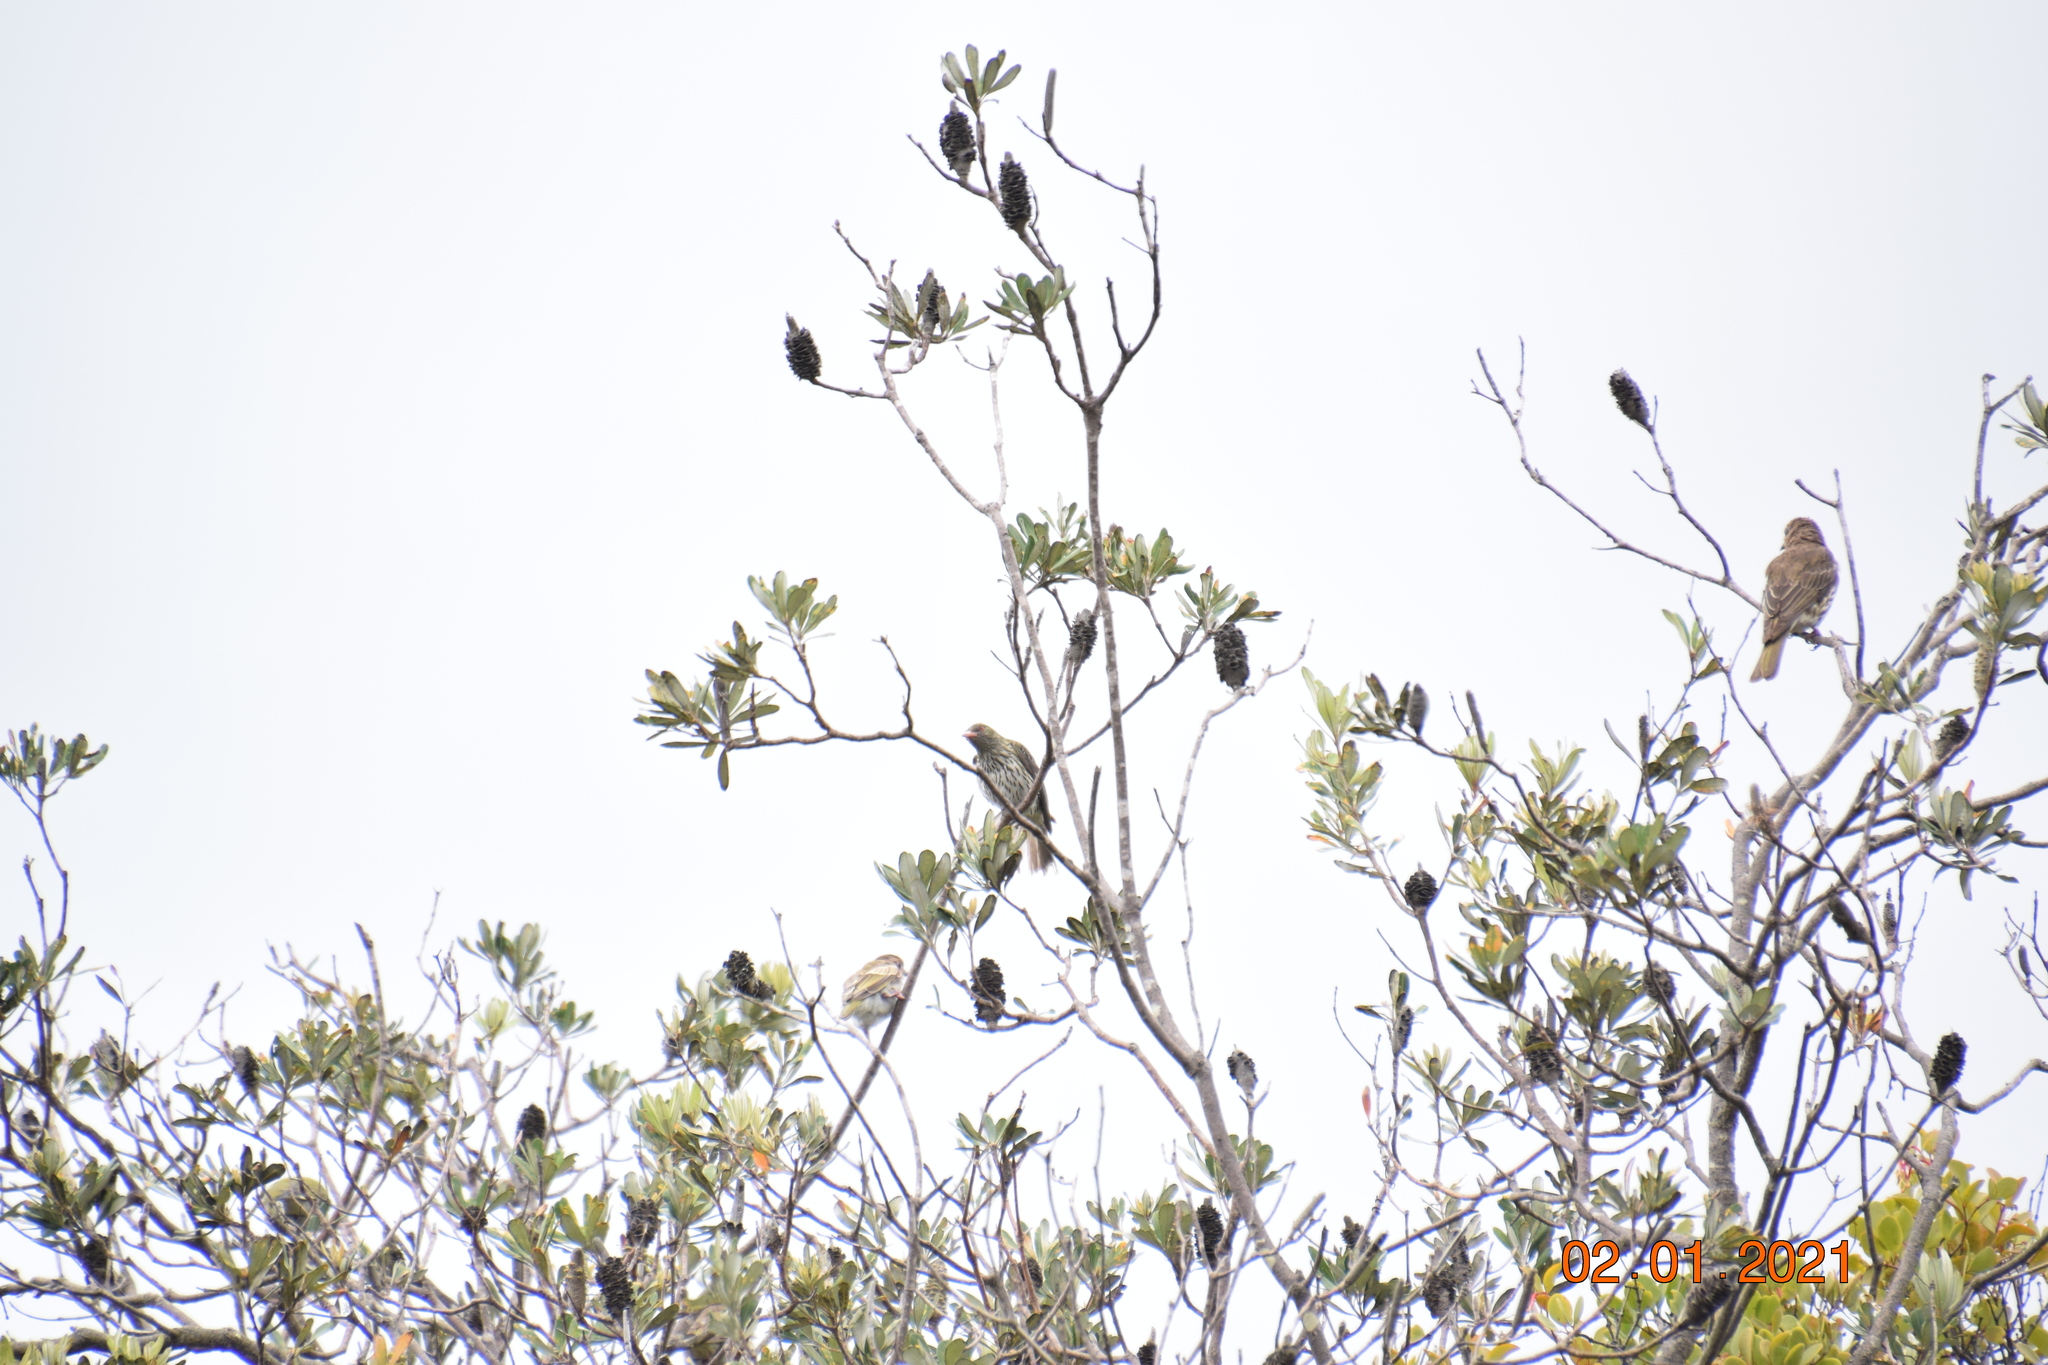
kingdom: Animalia
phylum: Chordata
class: Aves
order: Passeriformes
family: Oriolidae
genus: Oriolus
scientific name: Oriolus sagittatus
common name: Olive-backed oriole
